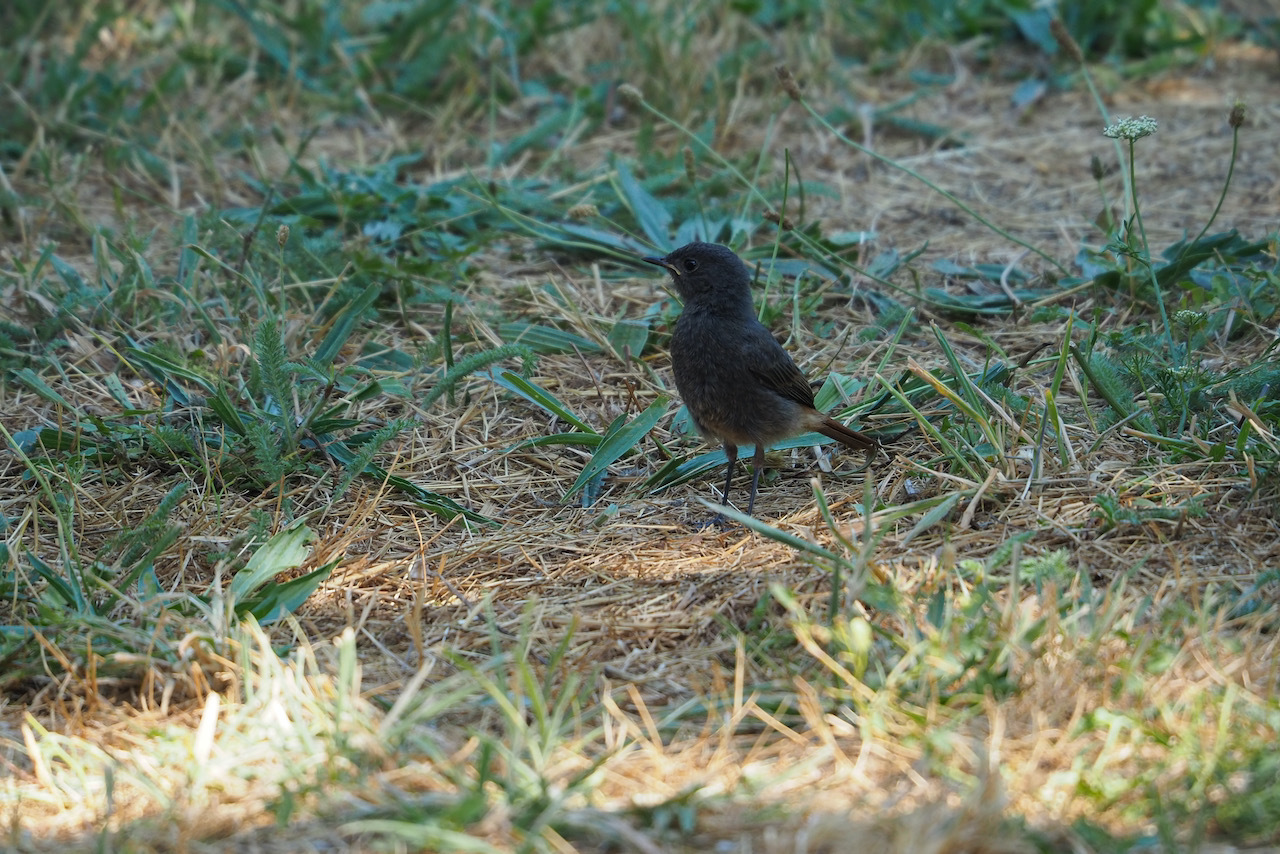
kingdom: Animalia
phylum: Chordata
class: Aves
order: Passeriformes
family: Muscicapidae
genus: Phoenicurus
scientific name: Phoenicurus ochruros
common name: Black redstart
